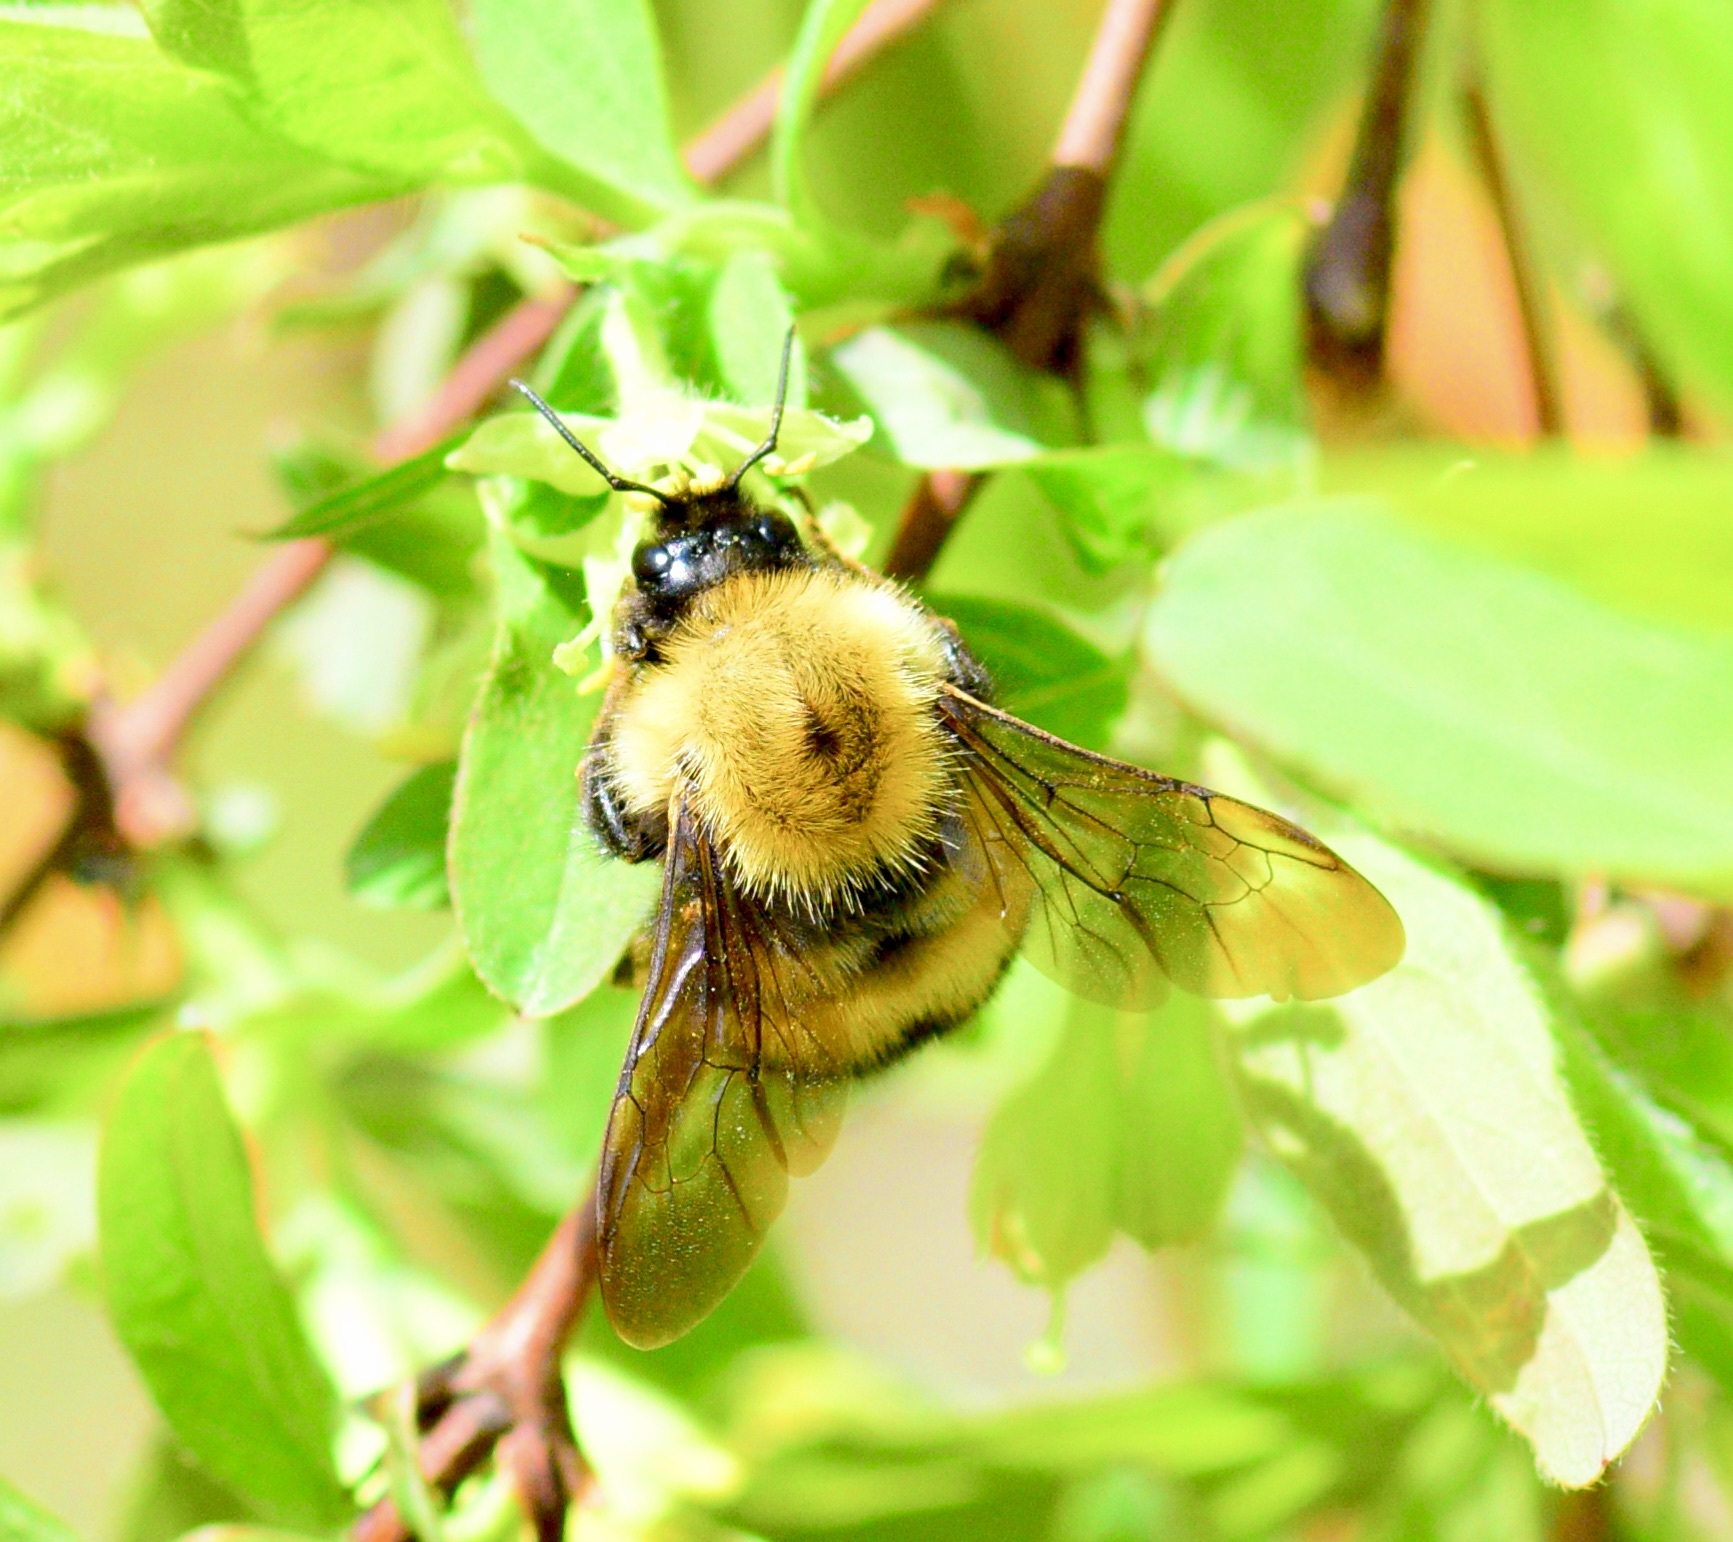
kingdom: Animalia
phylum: Arthropoda
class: Insecta
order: Hymenoptera
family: Apidae
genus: Bombus
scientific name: Bombus perplexus
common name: Confusing bumble bee
